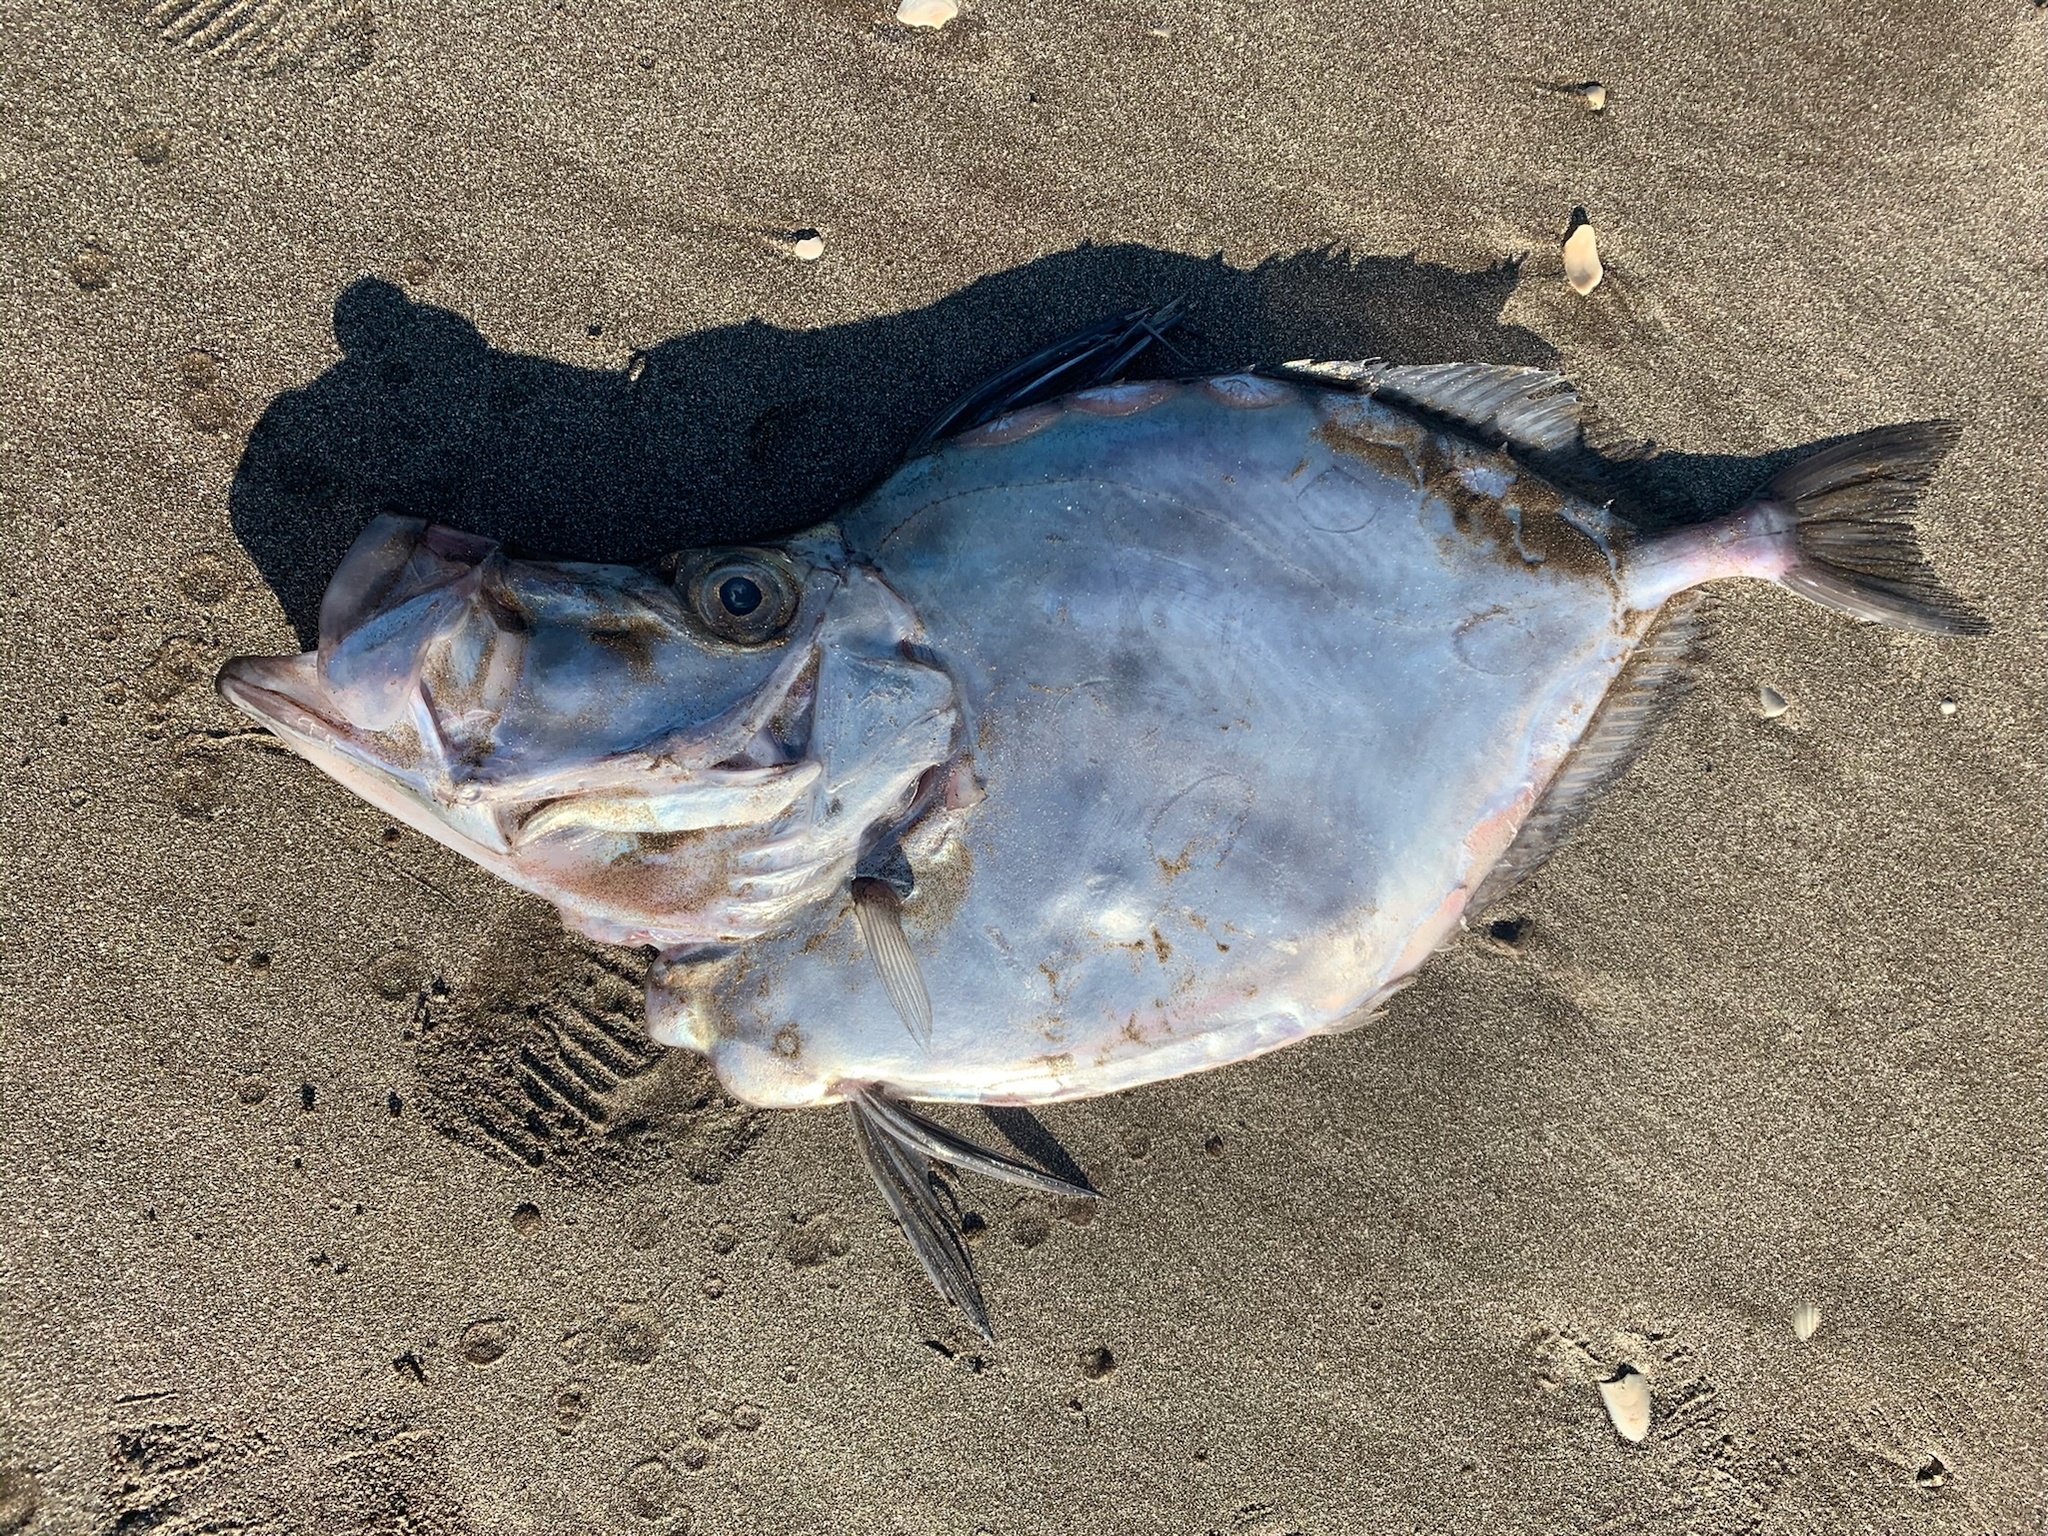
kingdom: Animalia
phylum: Chordata
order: Zeiformes
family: Zeidae
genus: Zenopsis
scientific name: Zenopsis conchifer
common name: Silvery john dory
